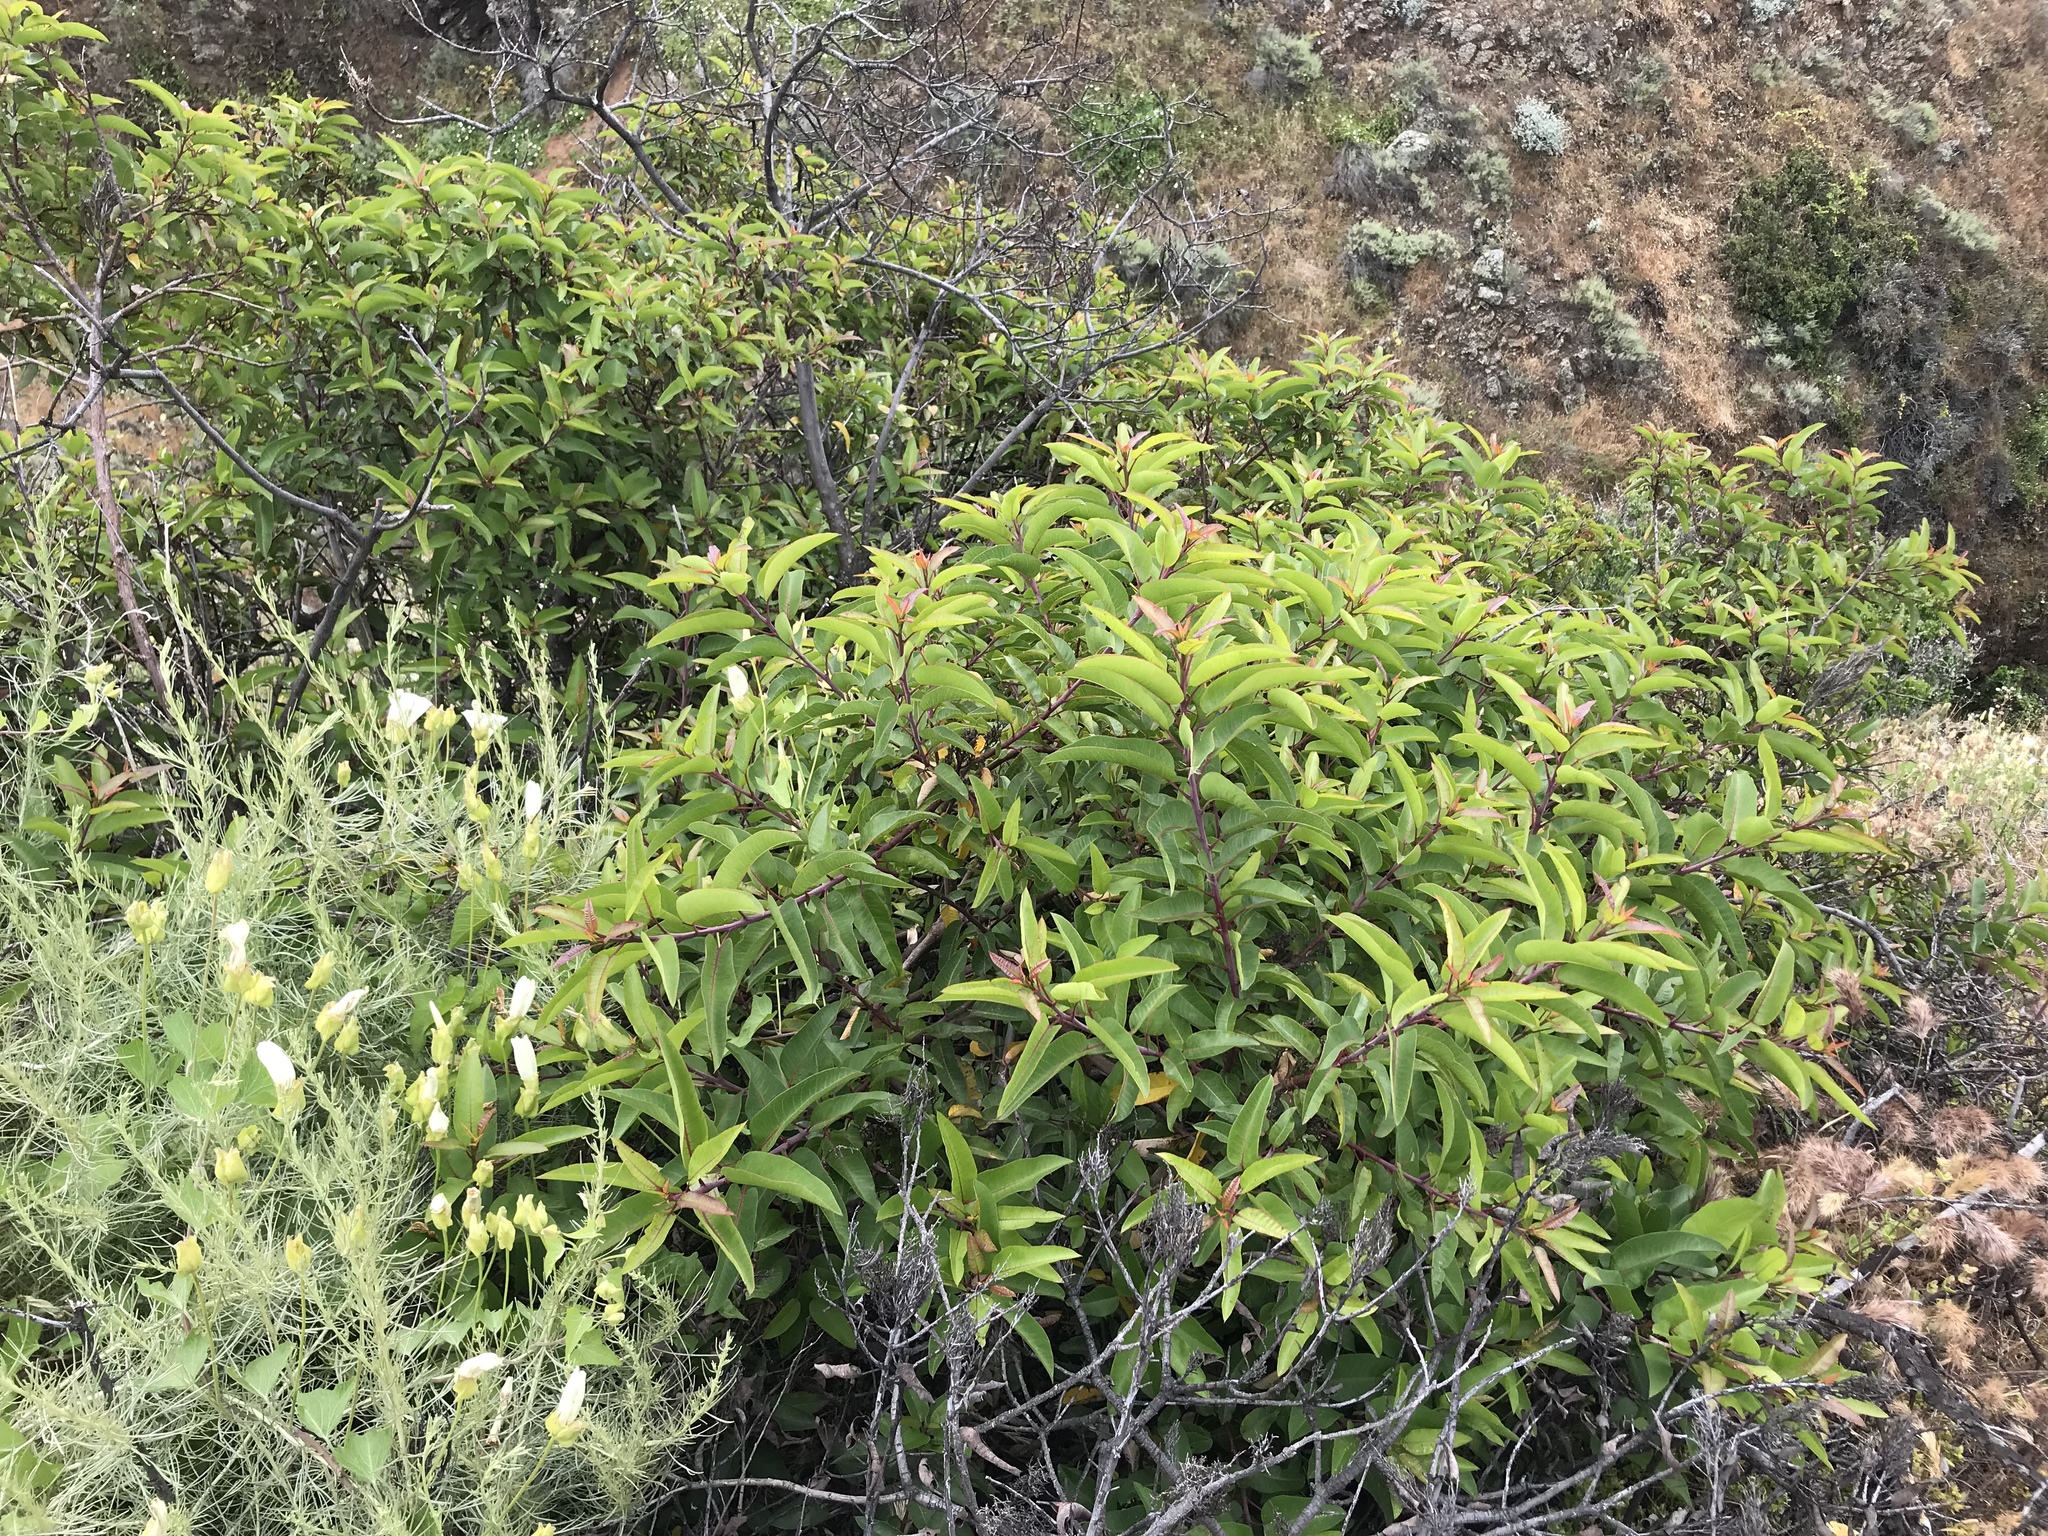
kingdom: Plantae
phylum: Tracheophyta
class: Magnoliopsida
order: Sapindales
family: Anacardiaceae
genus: Malosma
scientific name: Malosma laurina
